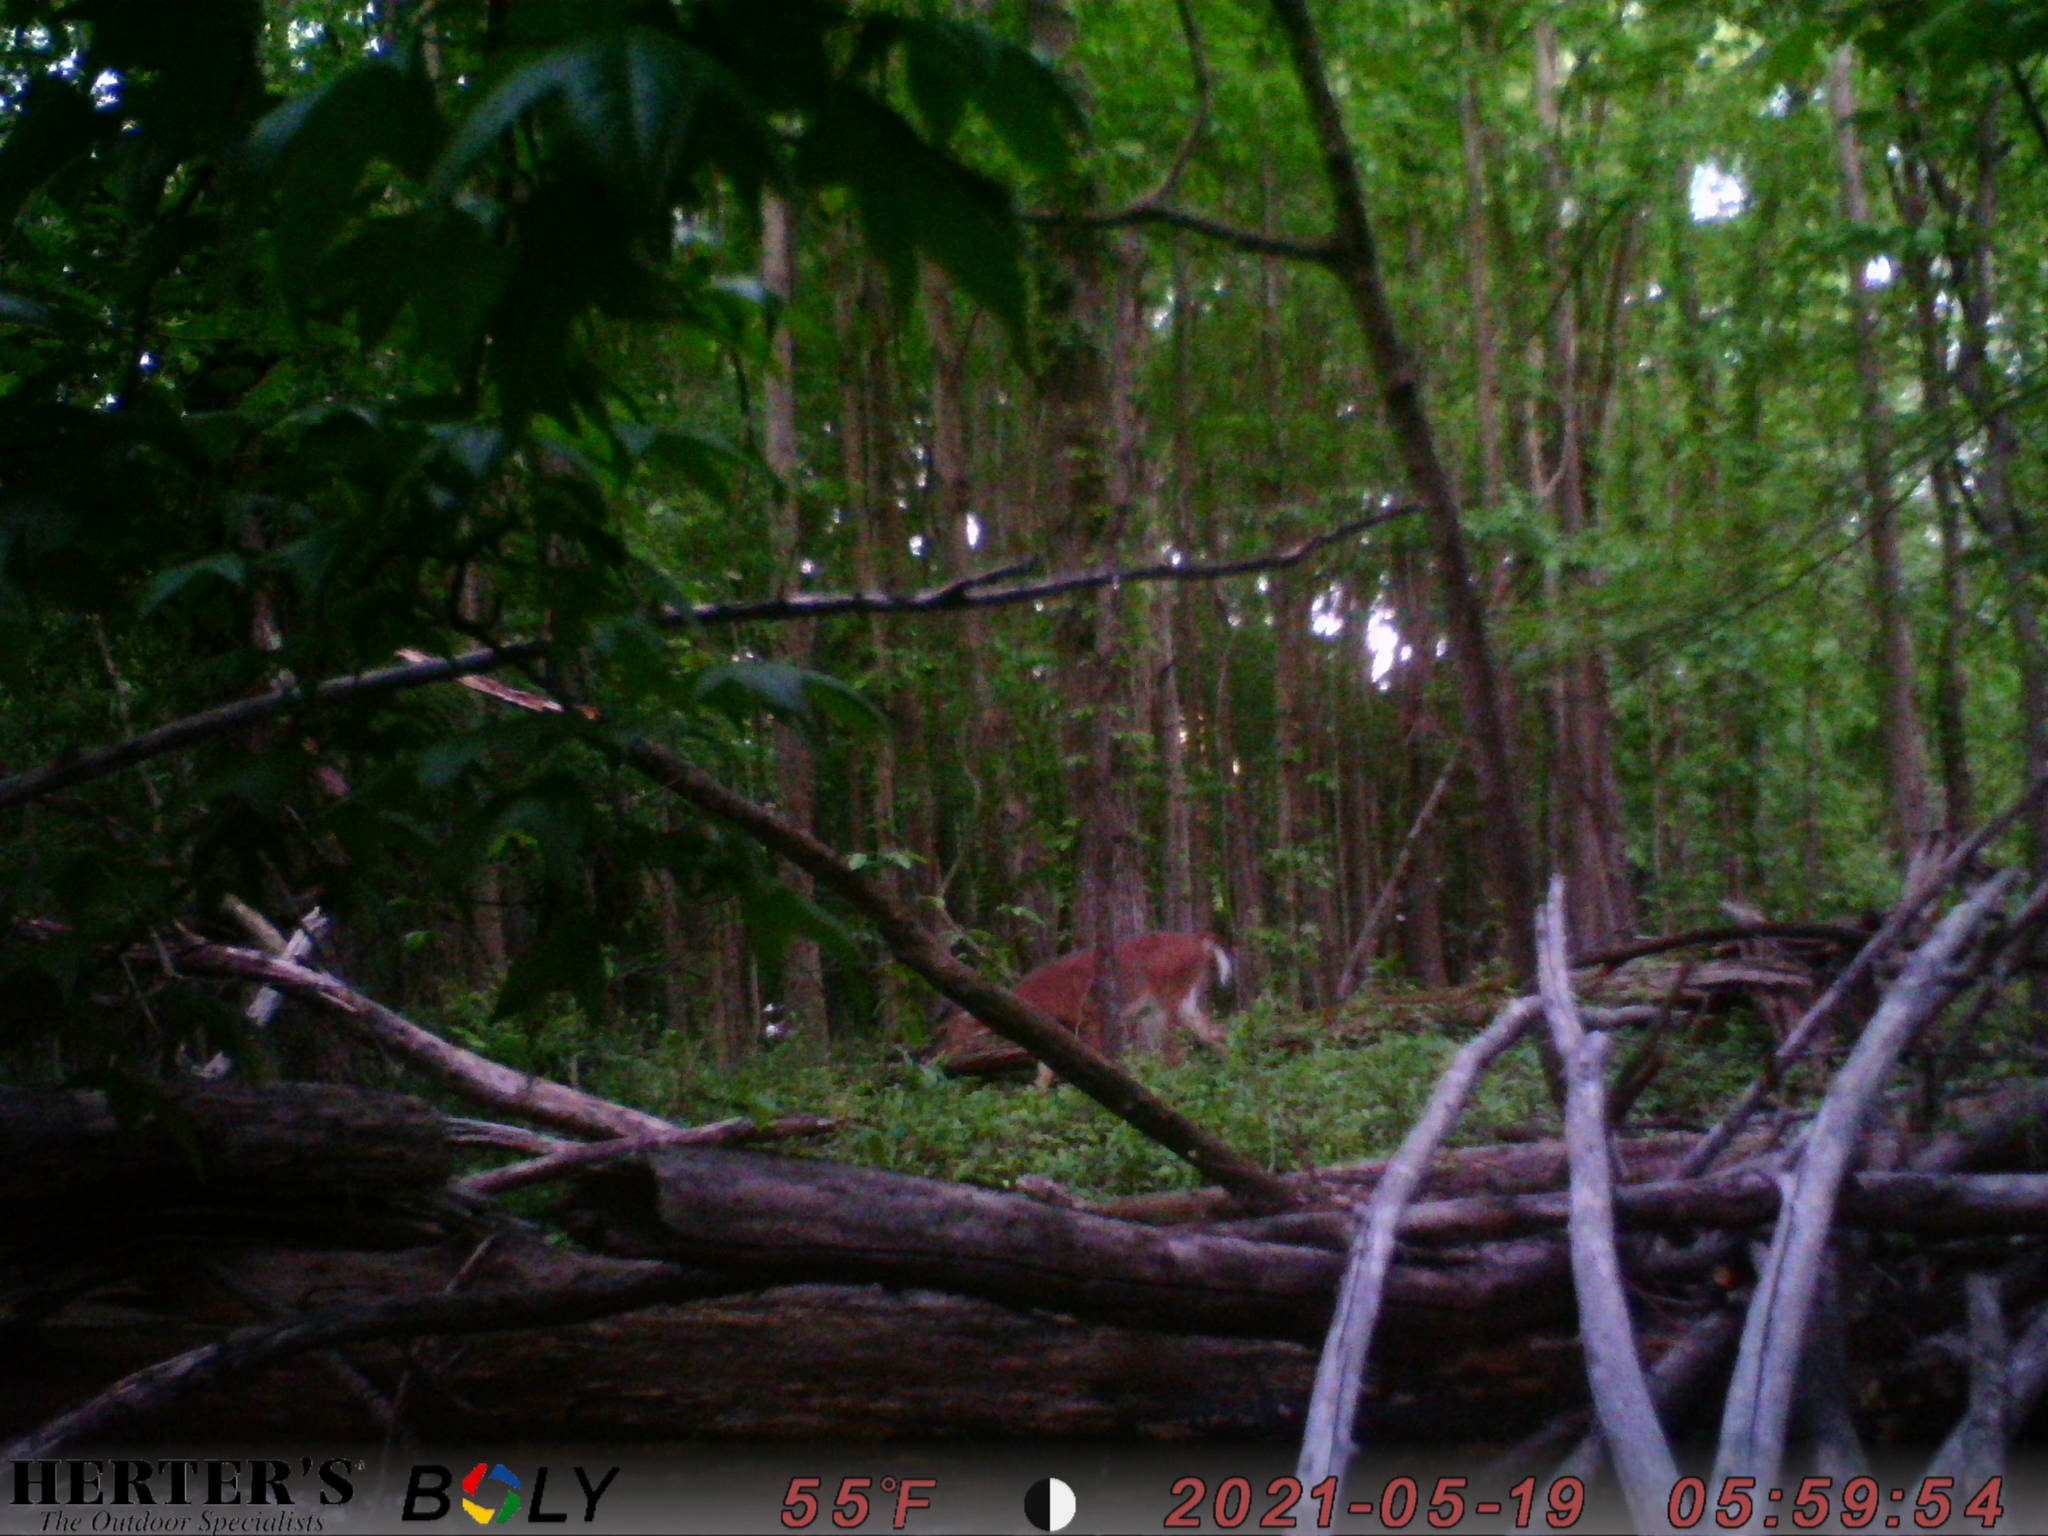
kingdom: Animalia
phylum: Chordata
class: Mammalia
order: Artiodactyla
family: Cervidae
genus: Odocoileus
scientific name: Odocoileus virginianus
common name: White-tailed deer
